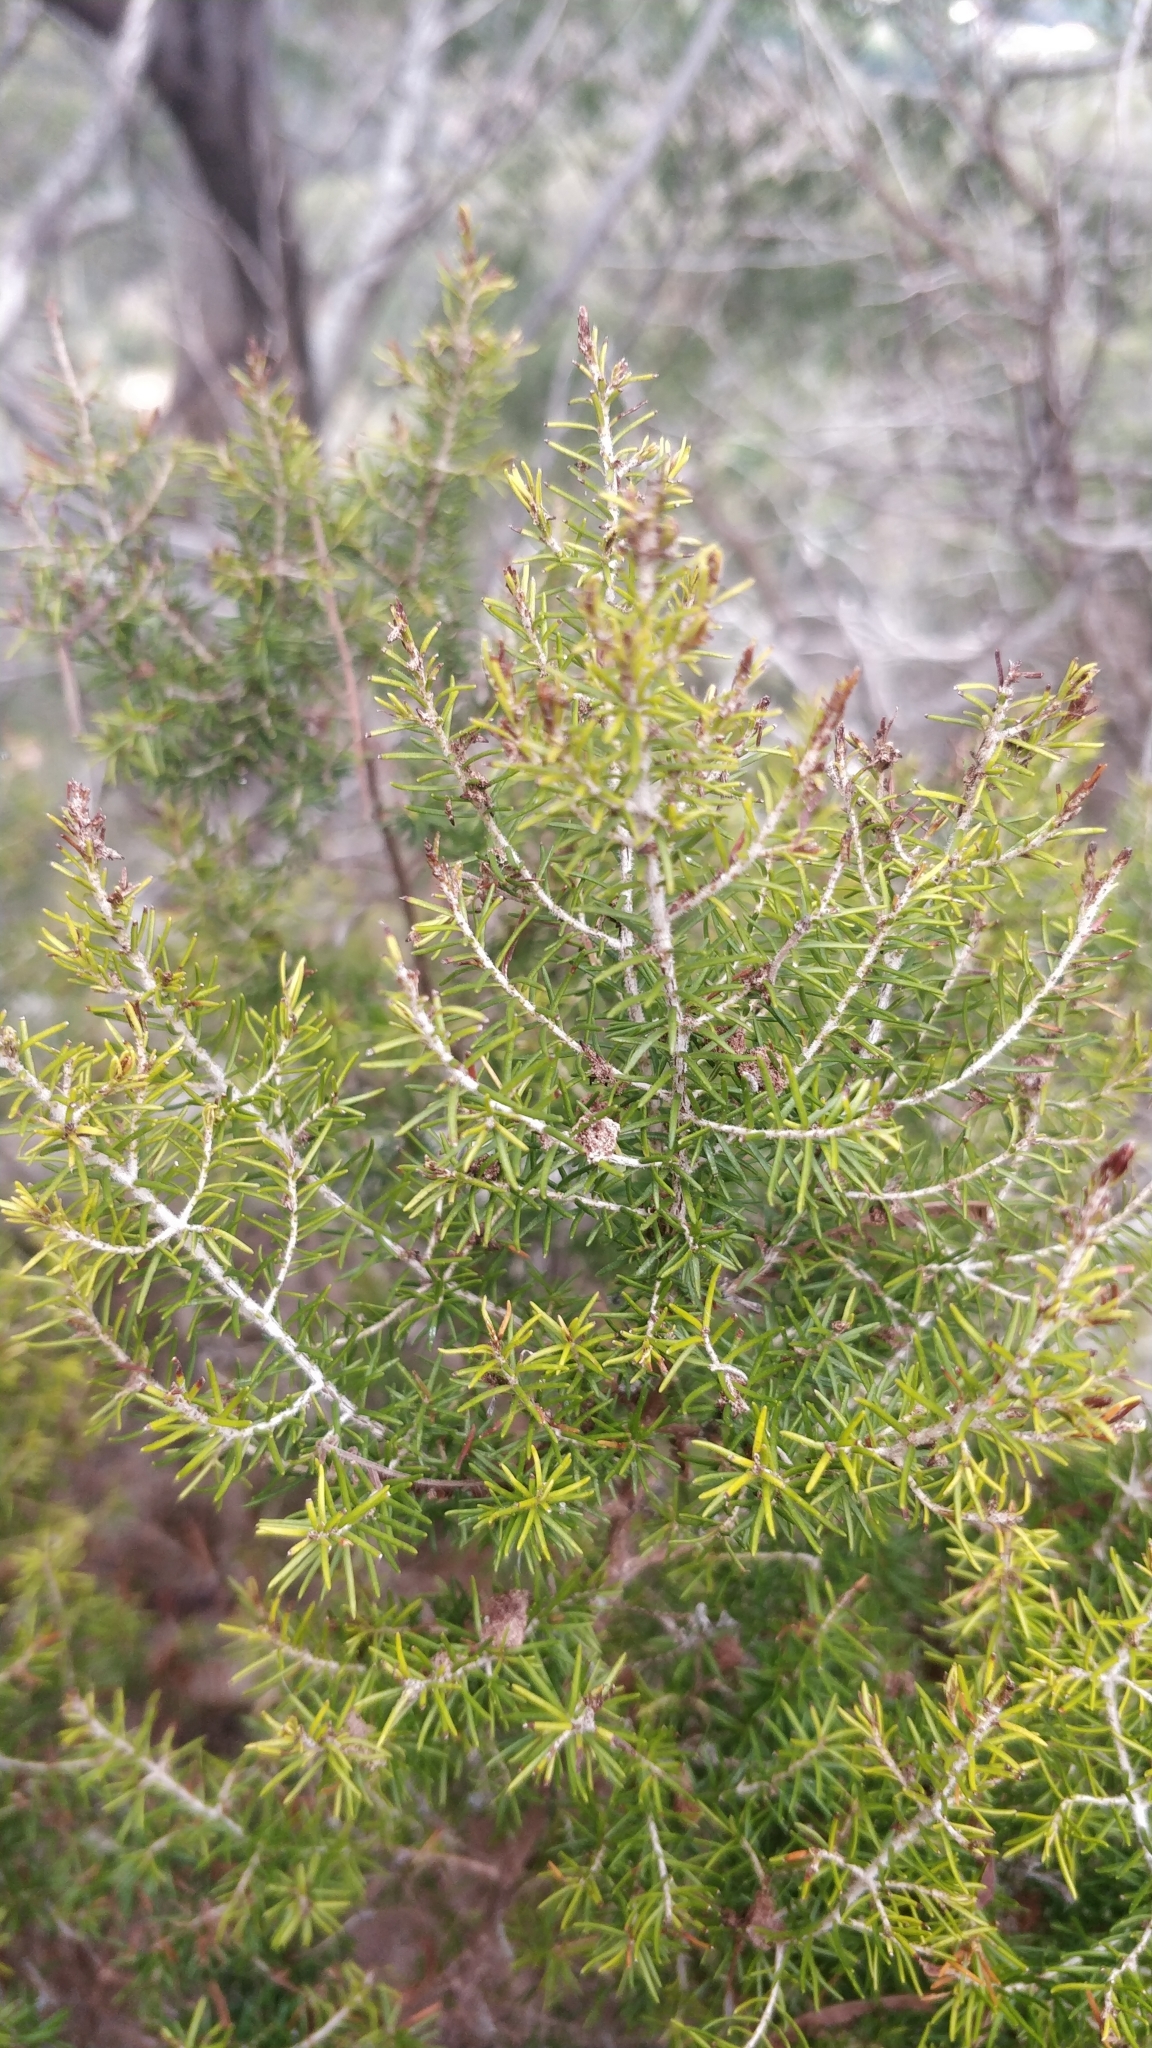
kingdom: Plantae
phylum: Tracheophyta
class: Magnoliopsida
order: Ericales
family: Ericaceae
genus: Erica
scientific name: Erica canariensis
